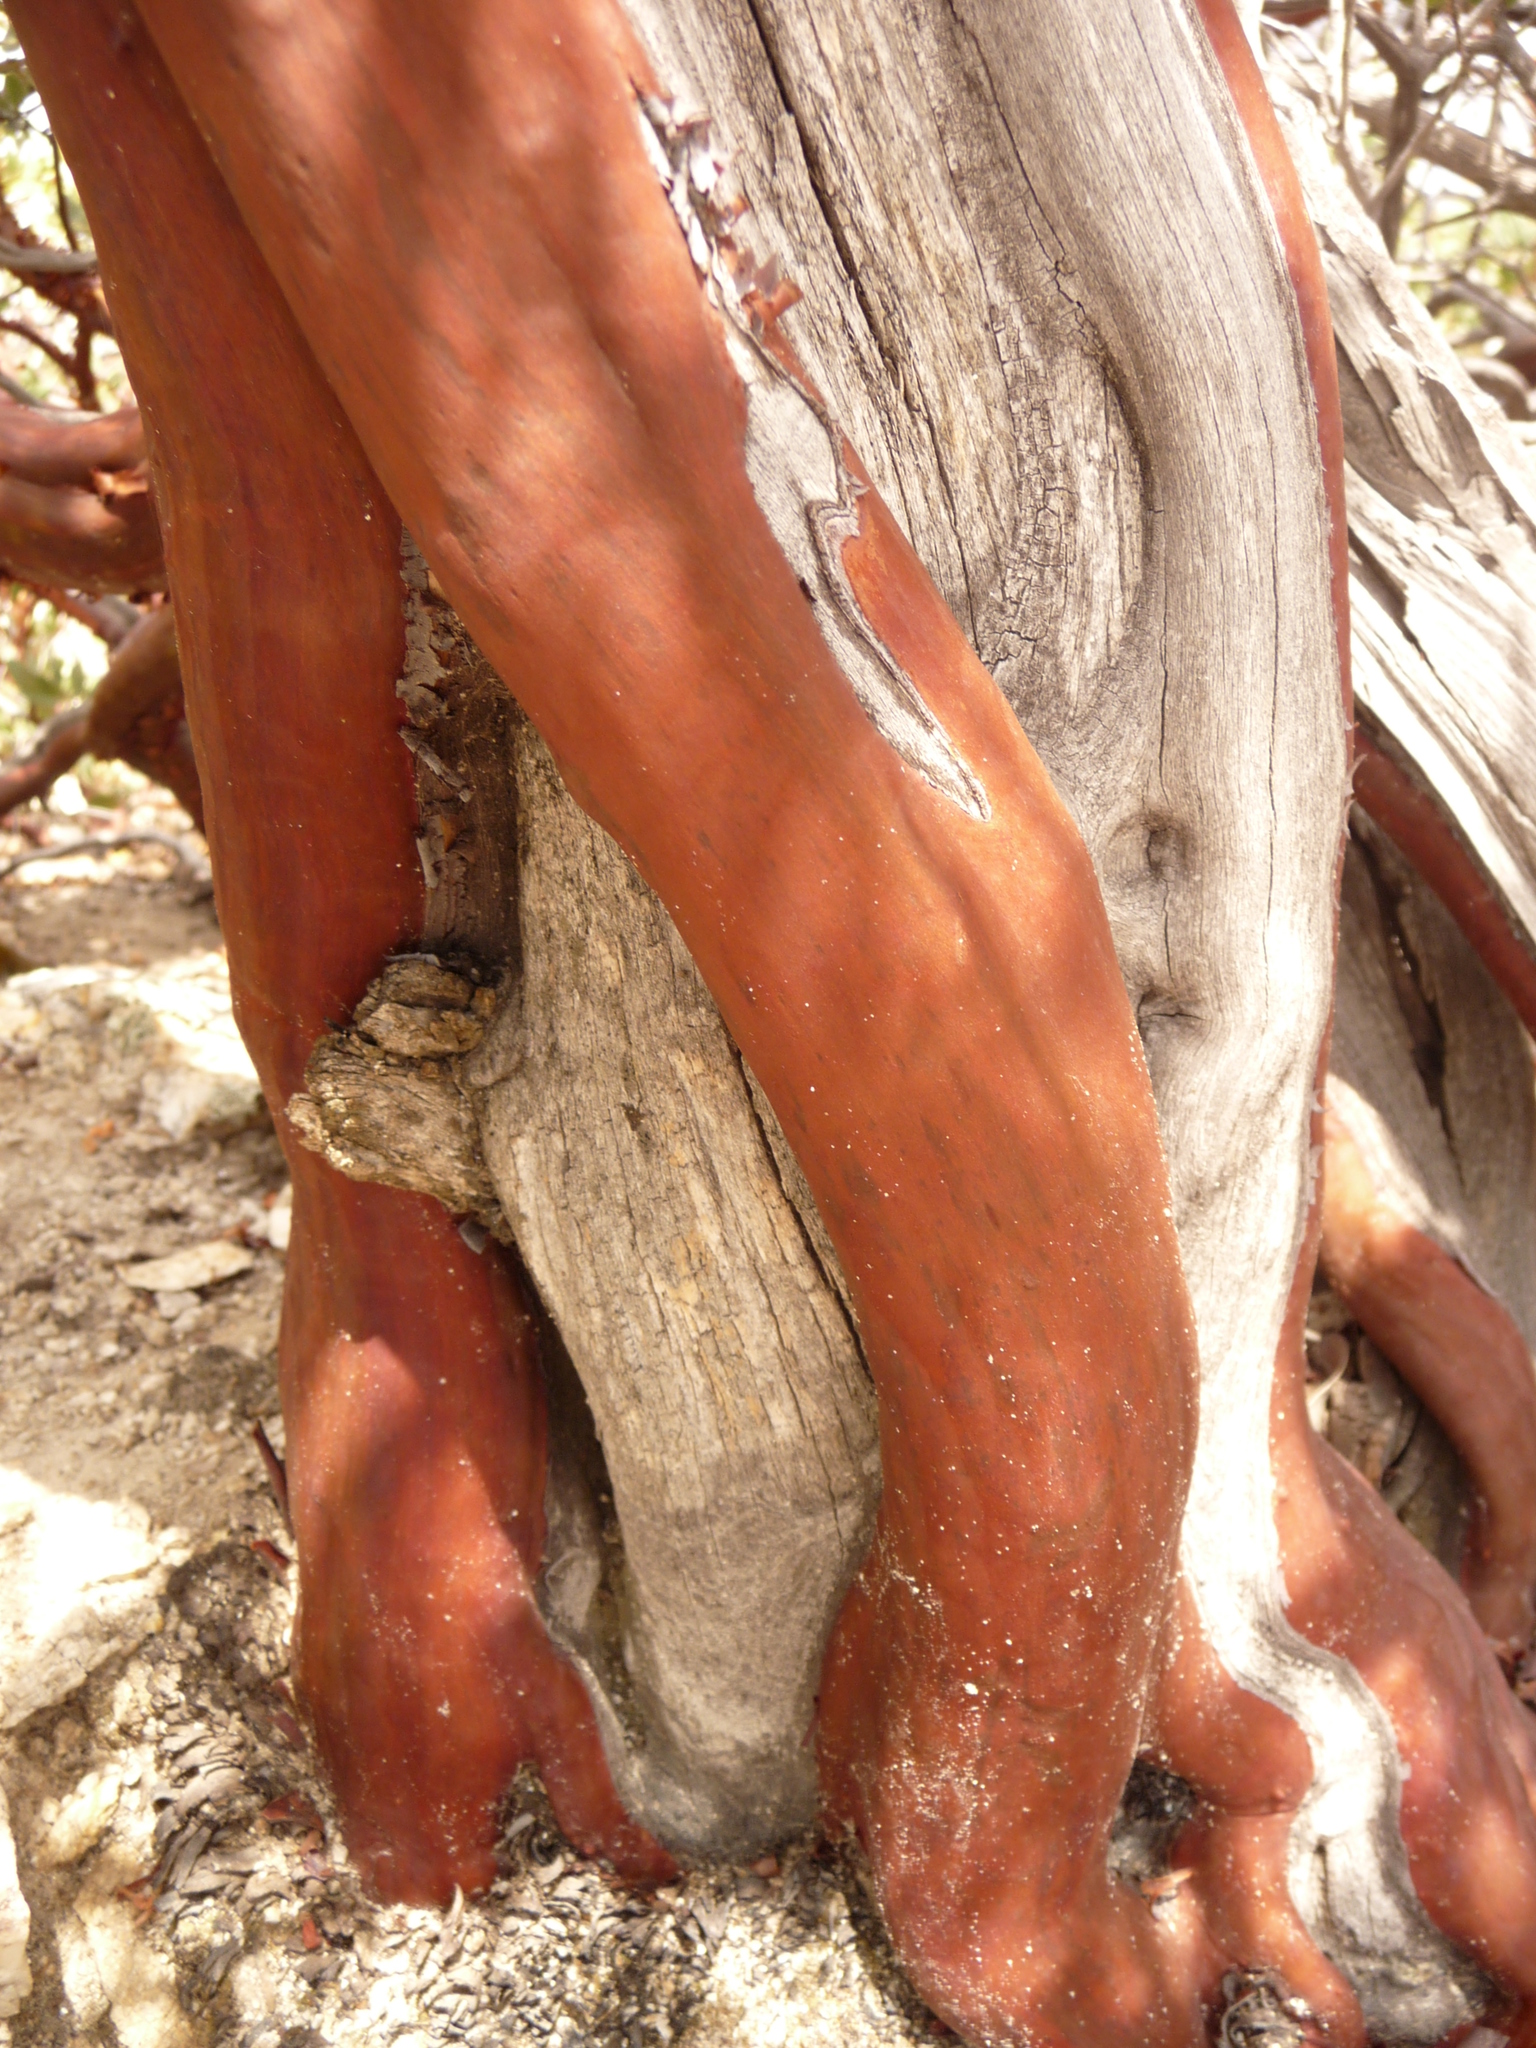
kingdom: Plantae
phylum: Tracheophyta
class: Magnoliopsida
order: Ericales
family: Ericaceae
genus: Arctostaphylos
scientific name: Arctostaphylos pringlei
